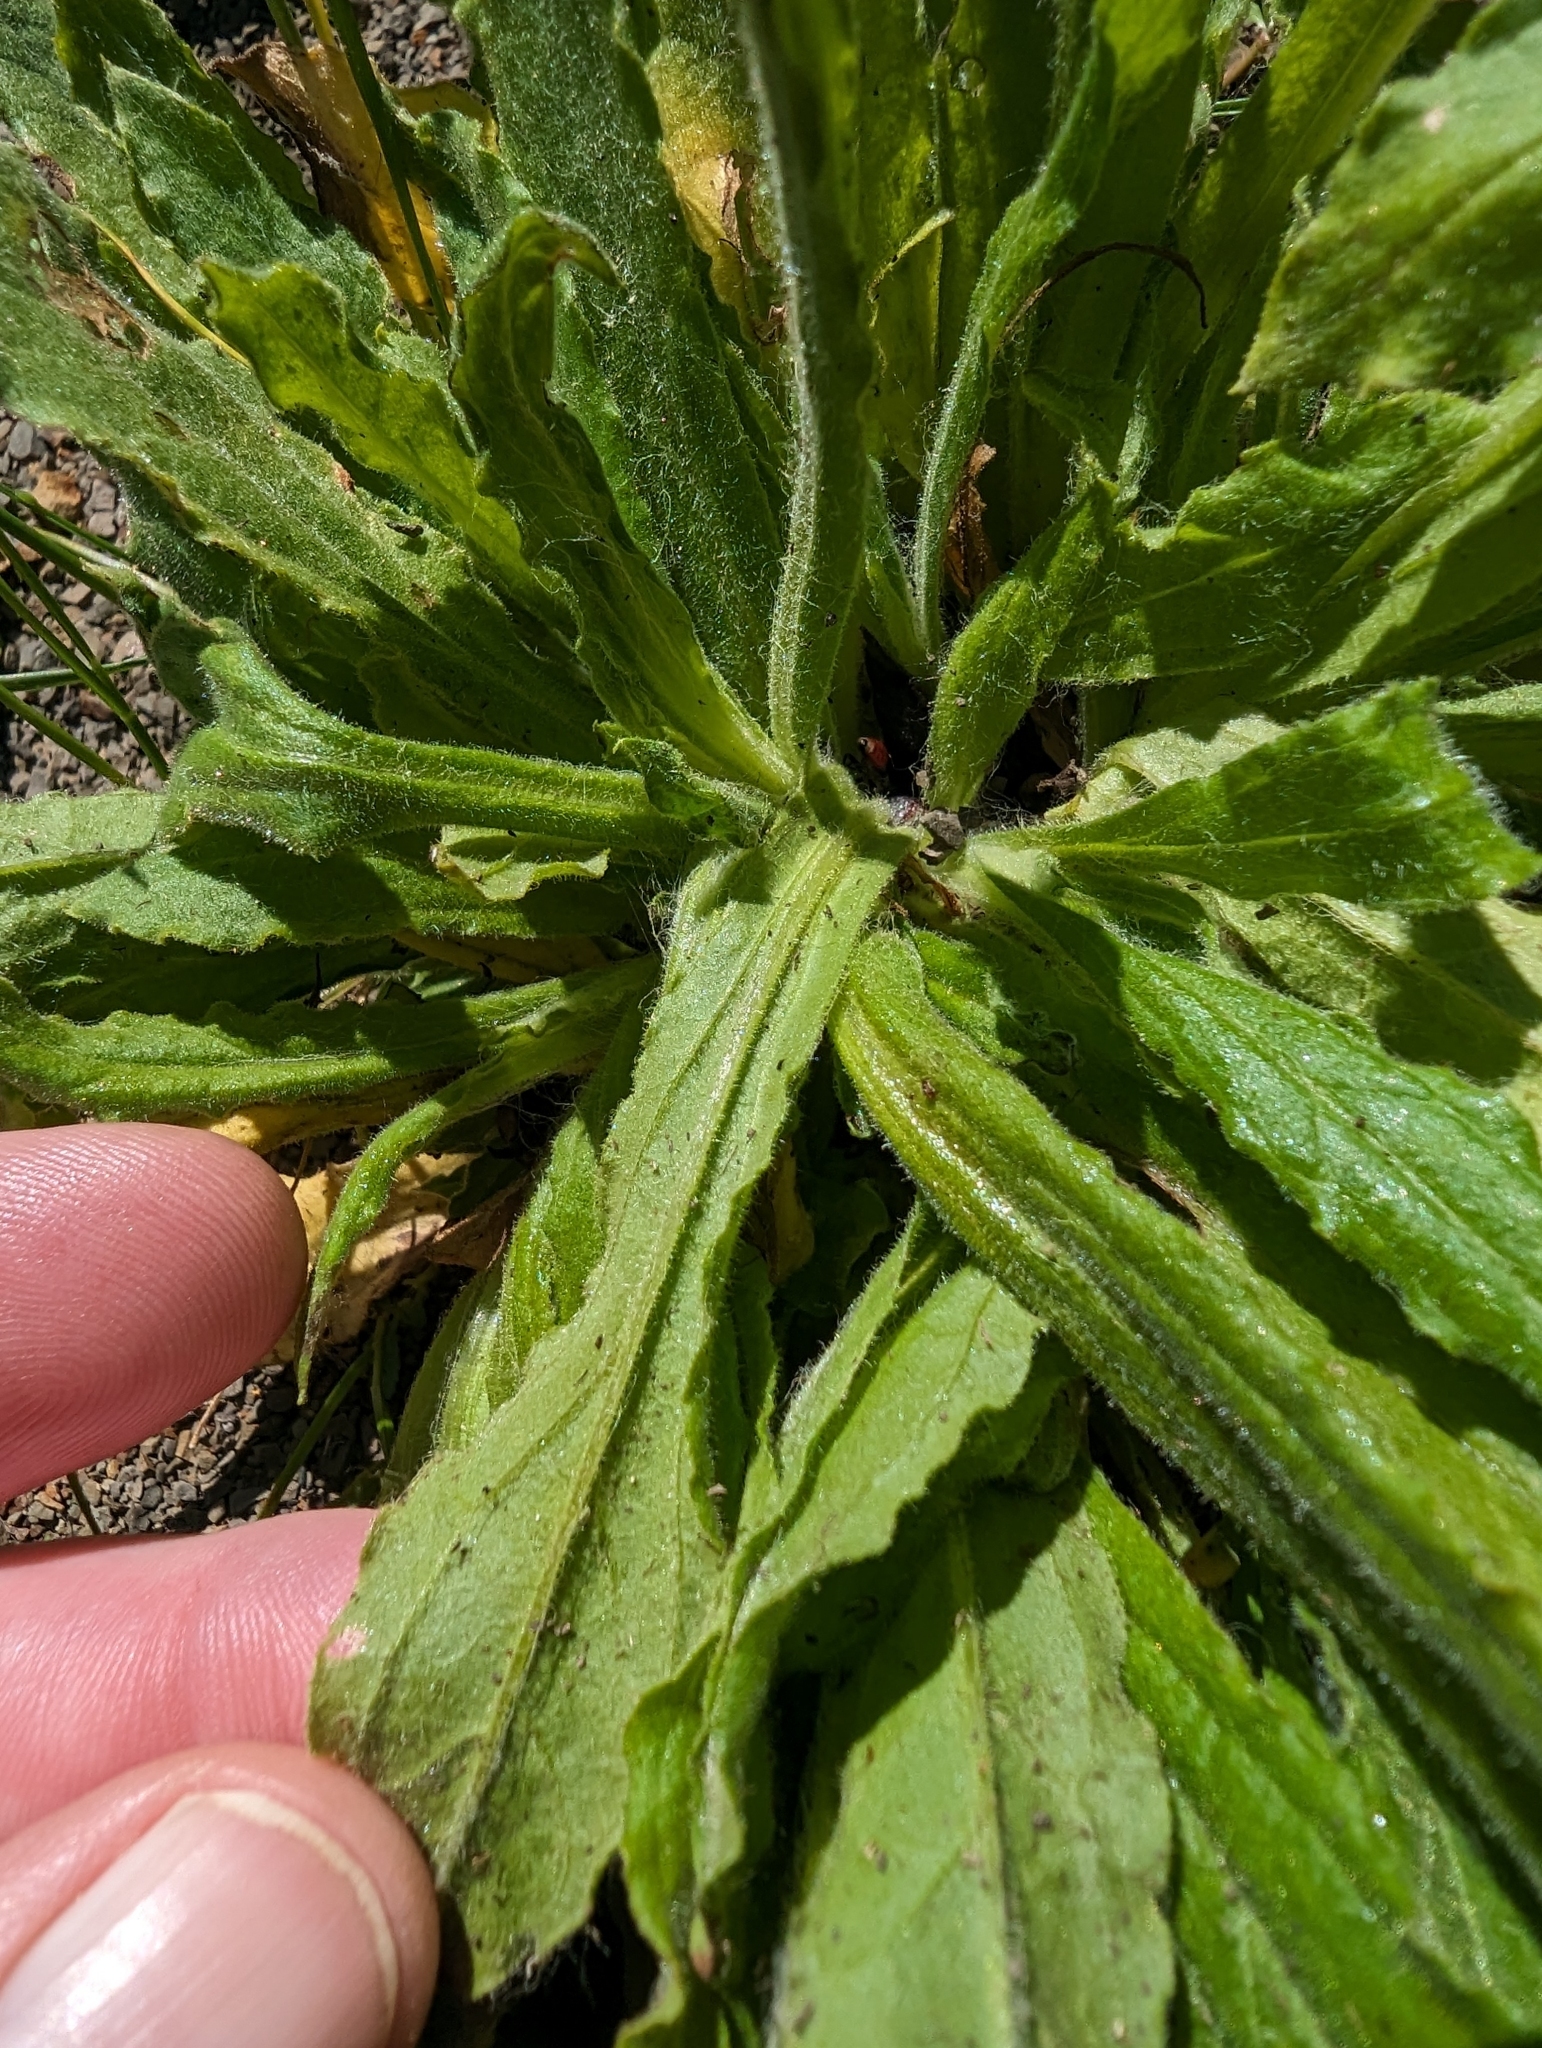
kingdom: Plantae
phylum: Tracheophyta
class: Magnoliopsida
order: Asterales
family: Asteraceae
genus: Pseudognaphalium
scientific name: Pseudognaphalium californicum
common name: California rabbit-tobacco
